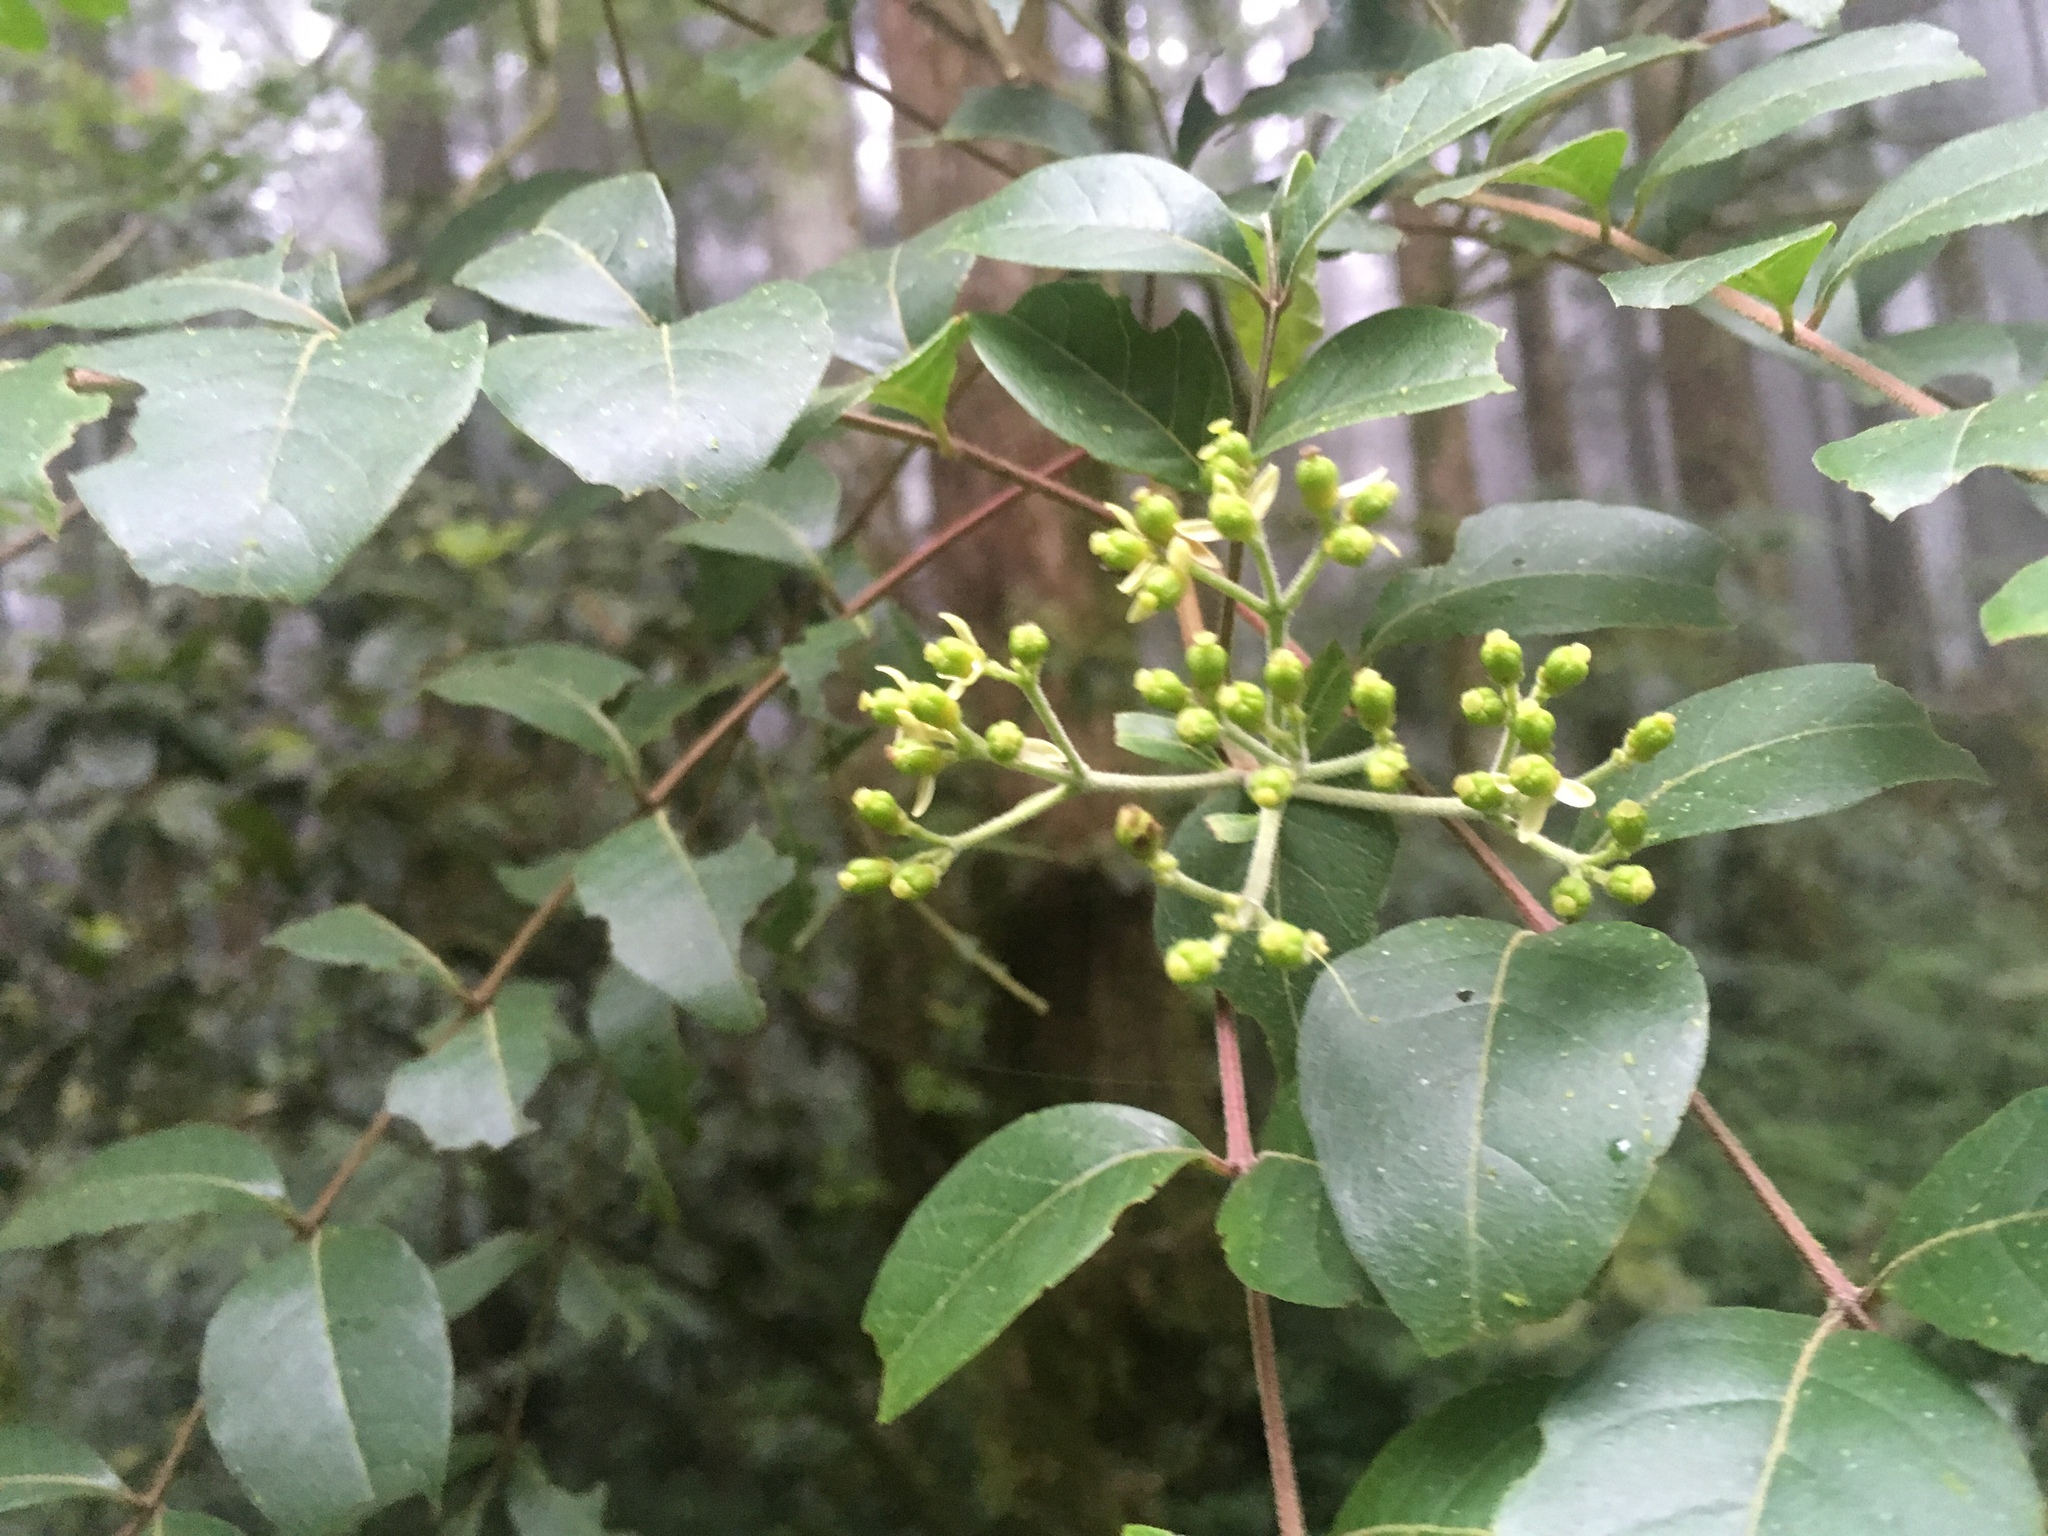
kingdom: Plantae
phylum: Tracheophyta
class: Magnoliopsida
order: Sapindales
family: Rutaceae
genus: Tetradium
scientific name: Tetradium ruticarpum
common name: Evodia
